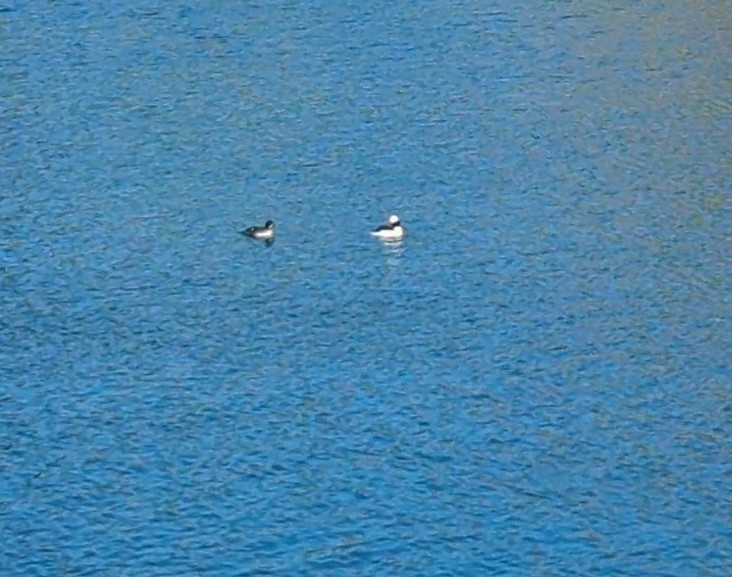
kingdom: Animalia
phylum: Chordata
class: Aves
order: Anseriformes
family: Anatidae
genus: Bucephala
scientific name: Bucephala albeola
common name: Bufflehead
